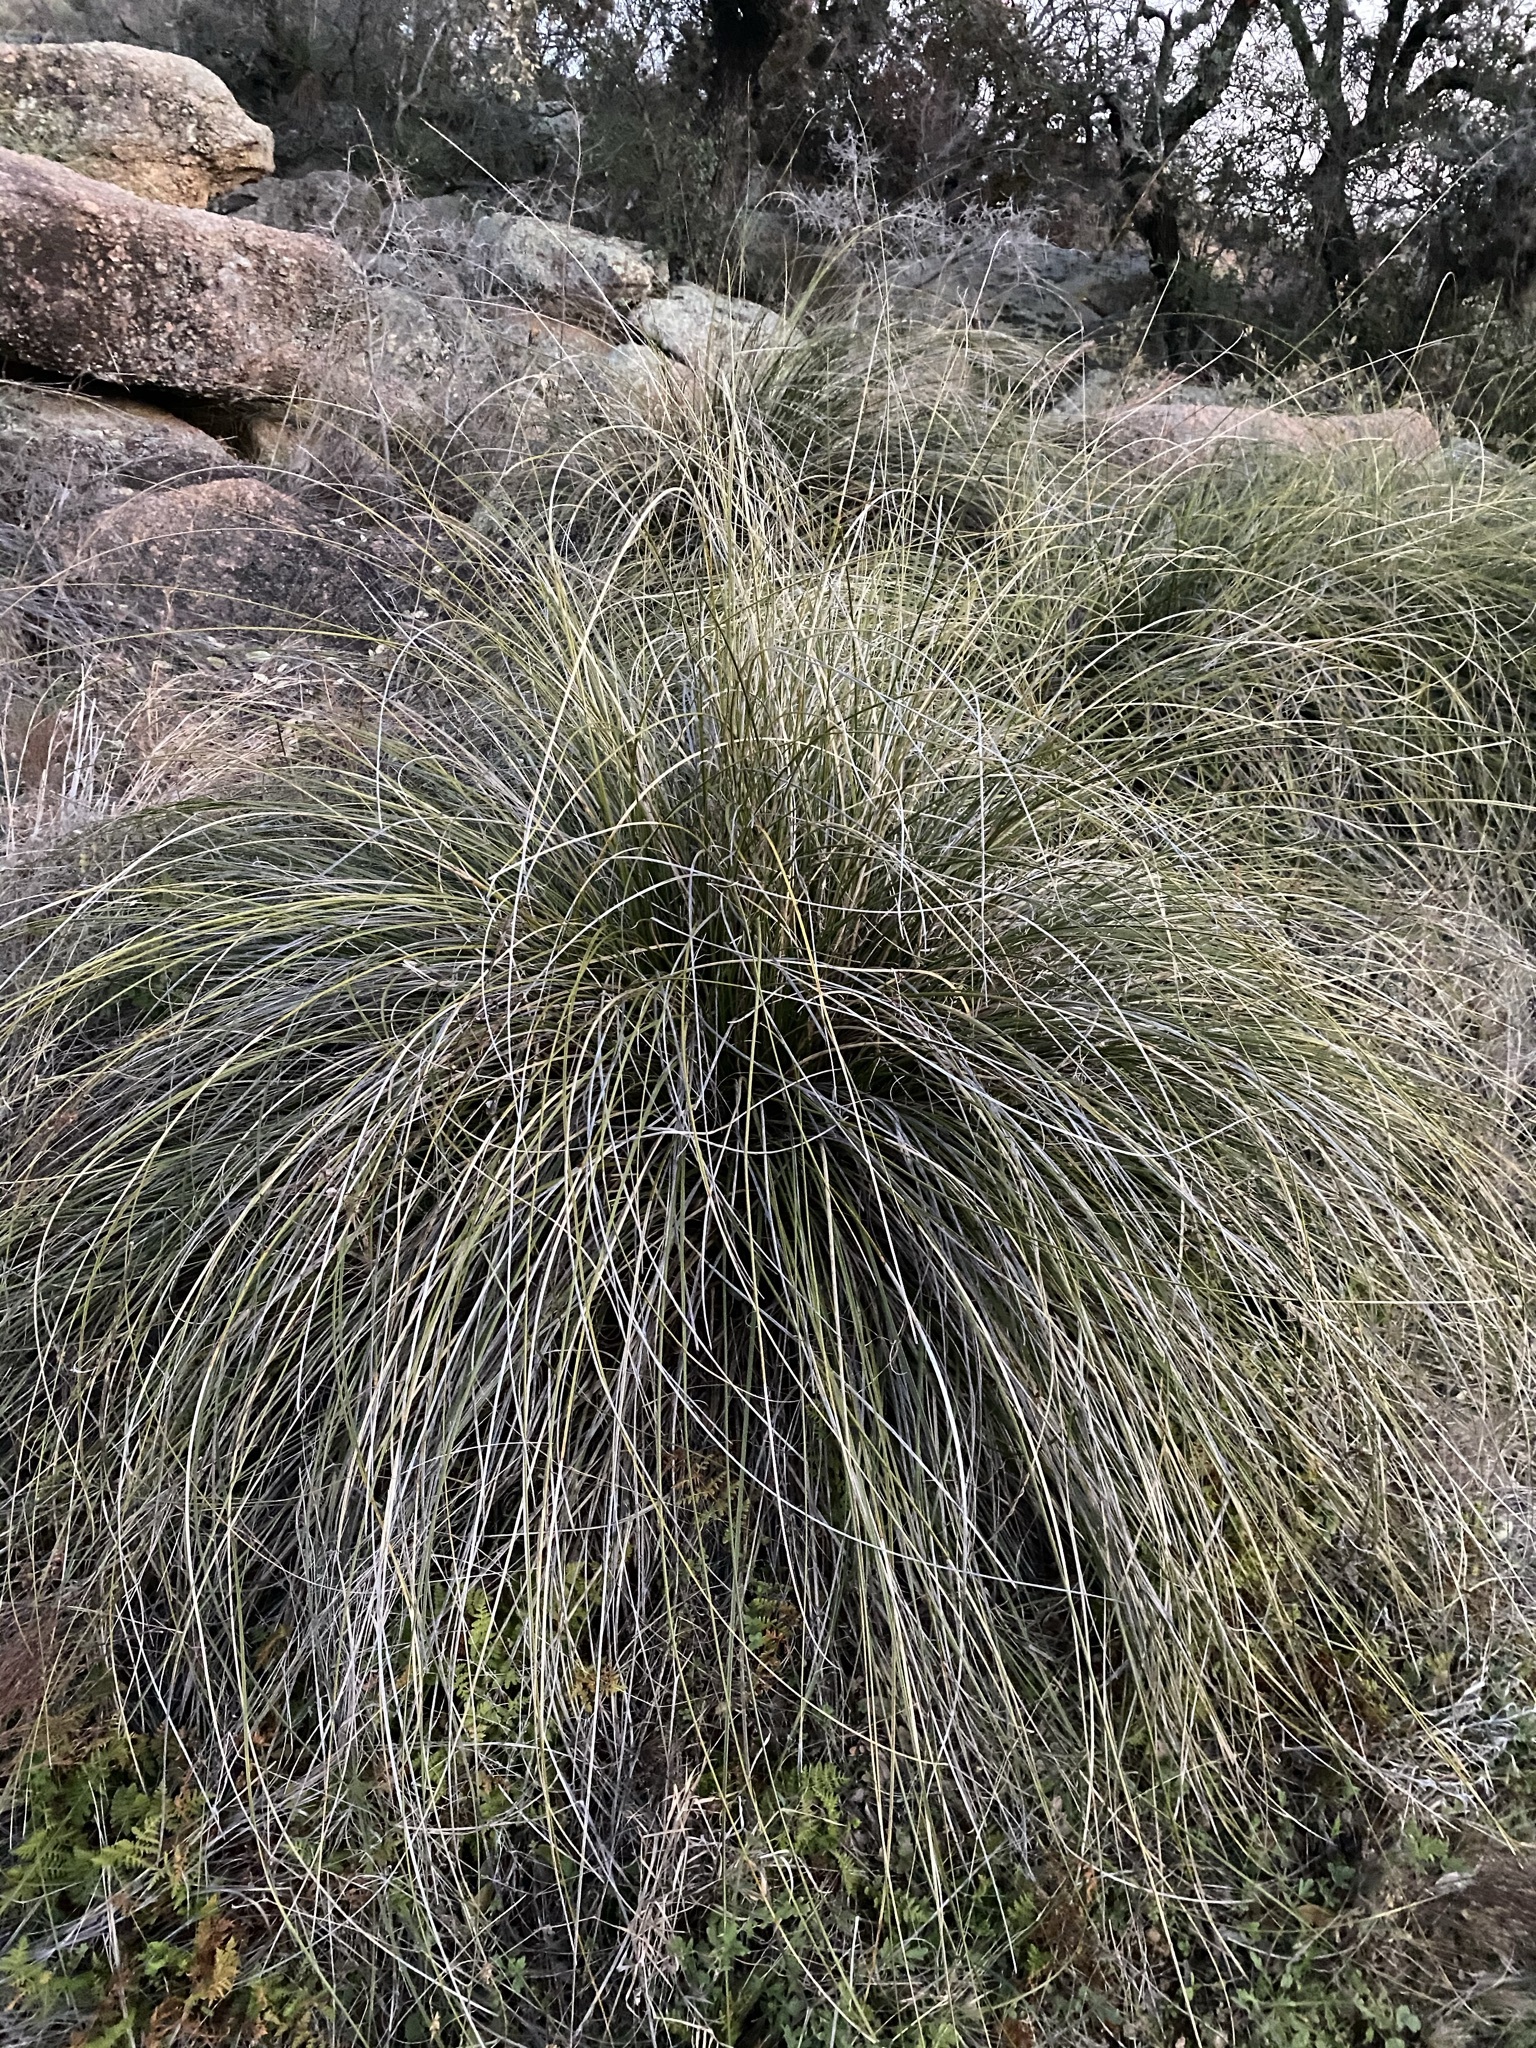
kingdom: Plantae
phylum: Tracheophyta
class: Liliopsida
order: Asparagales
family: Asparagaceae
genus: Nolina
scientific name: Nolina texana
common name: Texas sacahuiste
